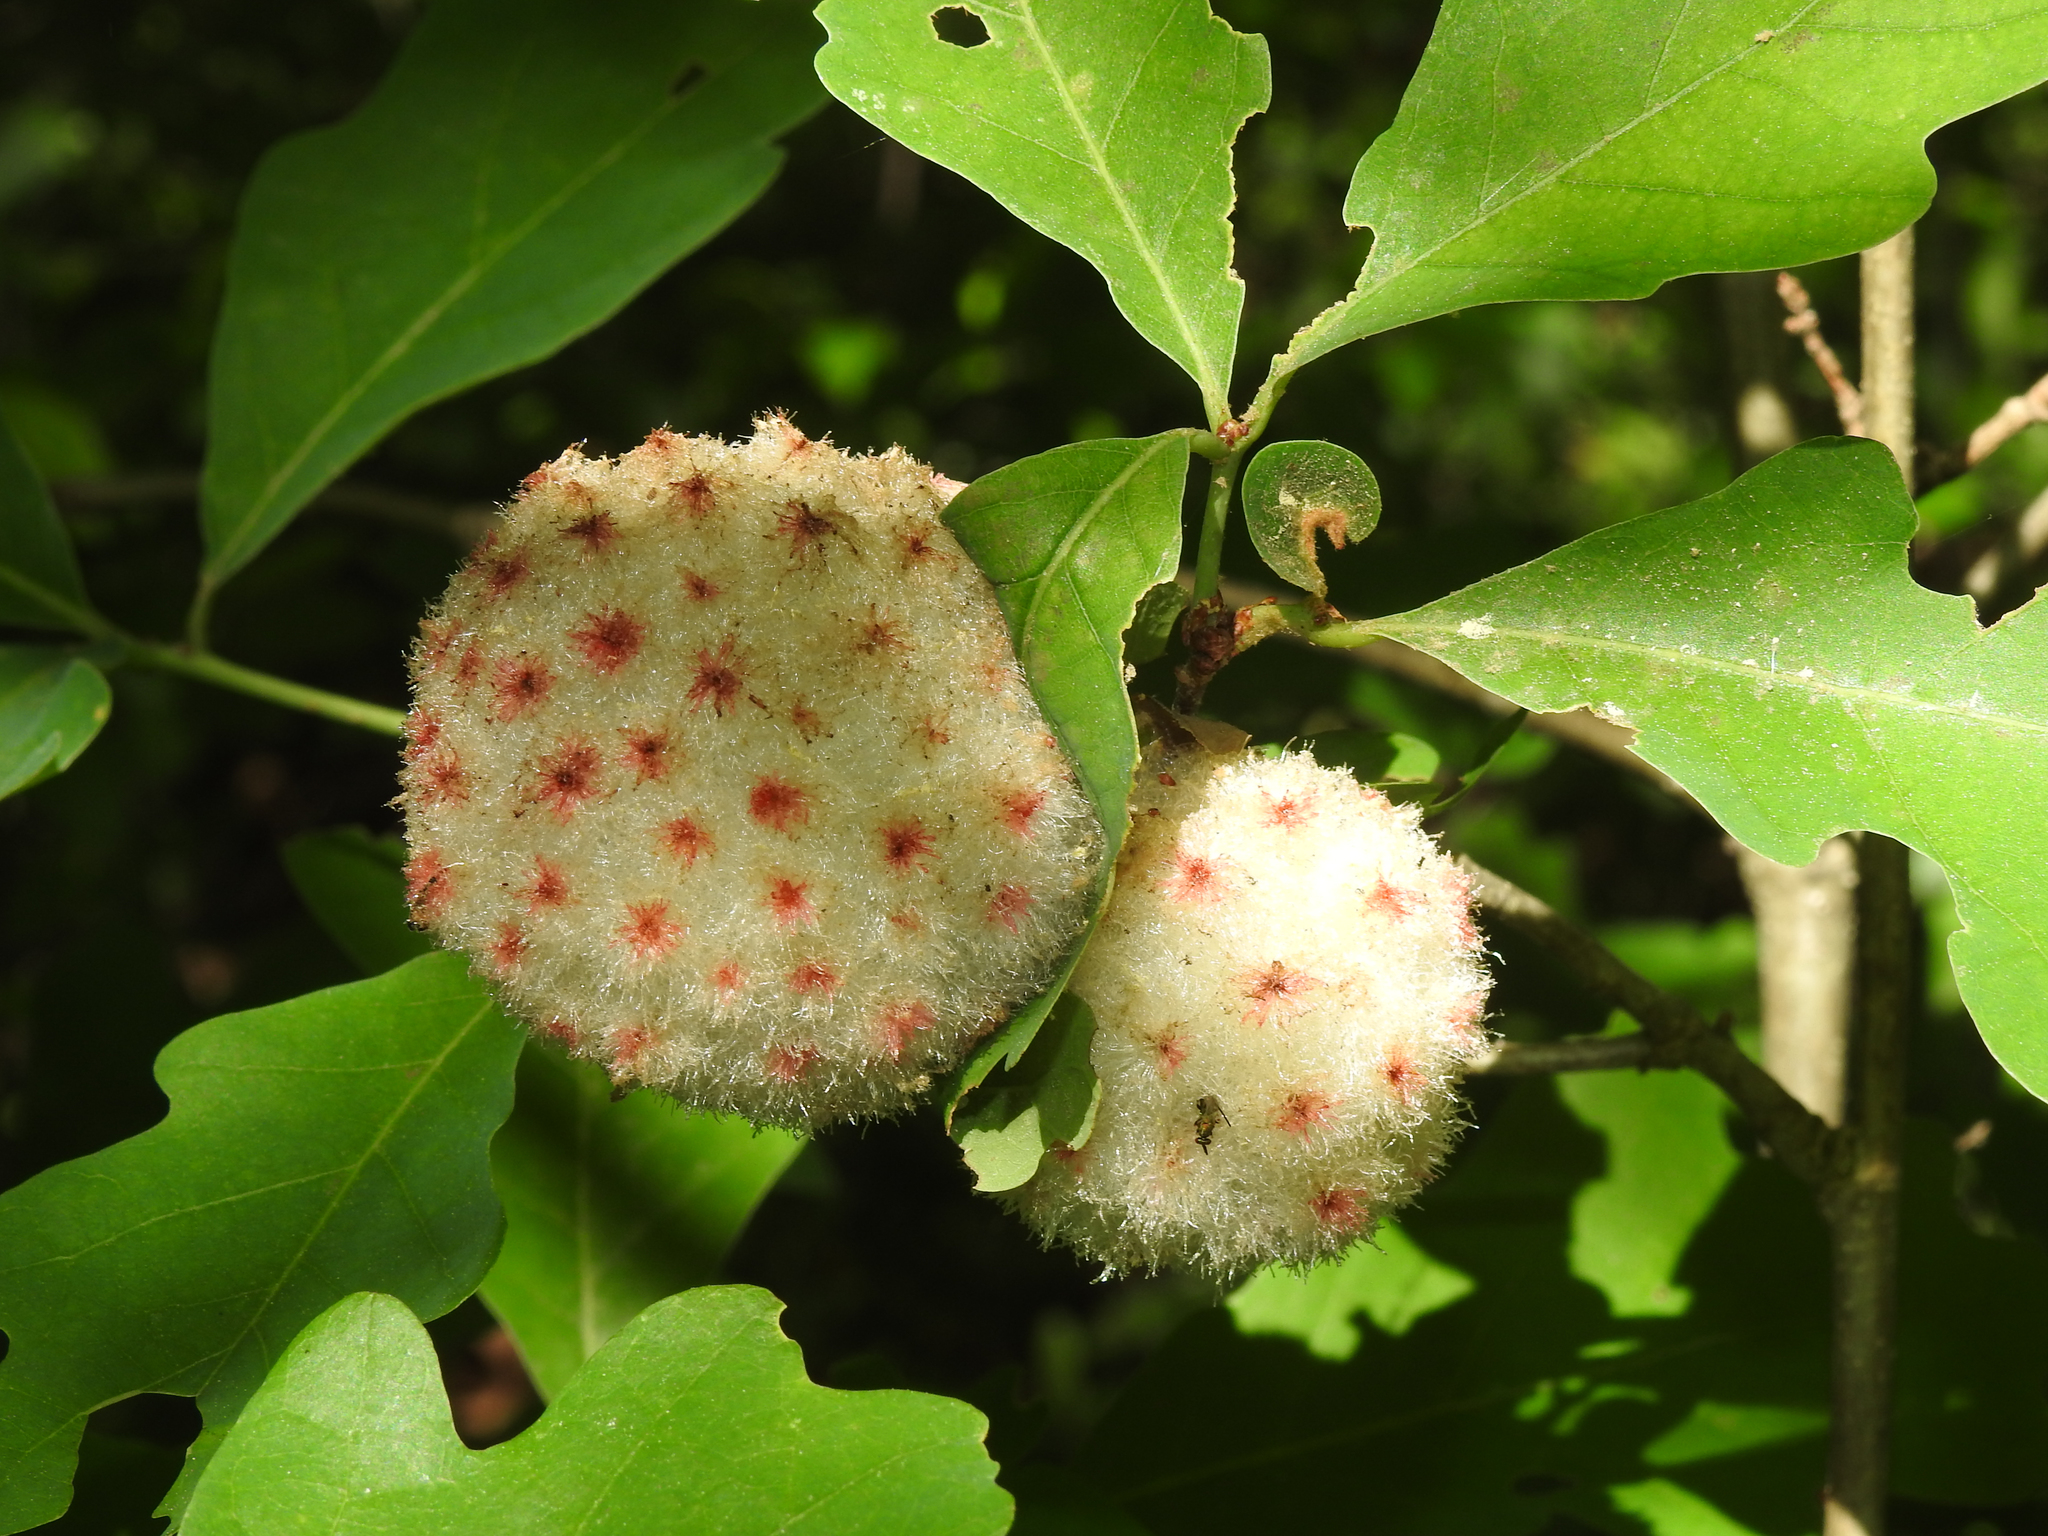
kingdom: Animalia
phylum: Arthropoda
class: Insecta
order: Hymenoptera
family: Cynipidae
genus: Callirhytis
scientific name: Callirhytis
